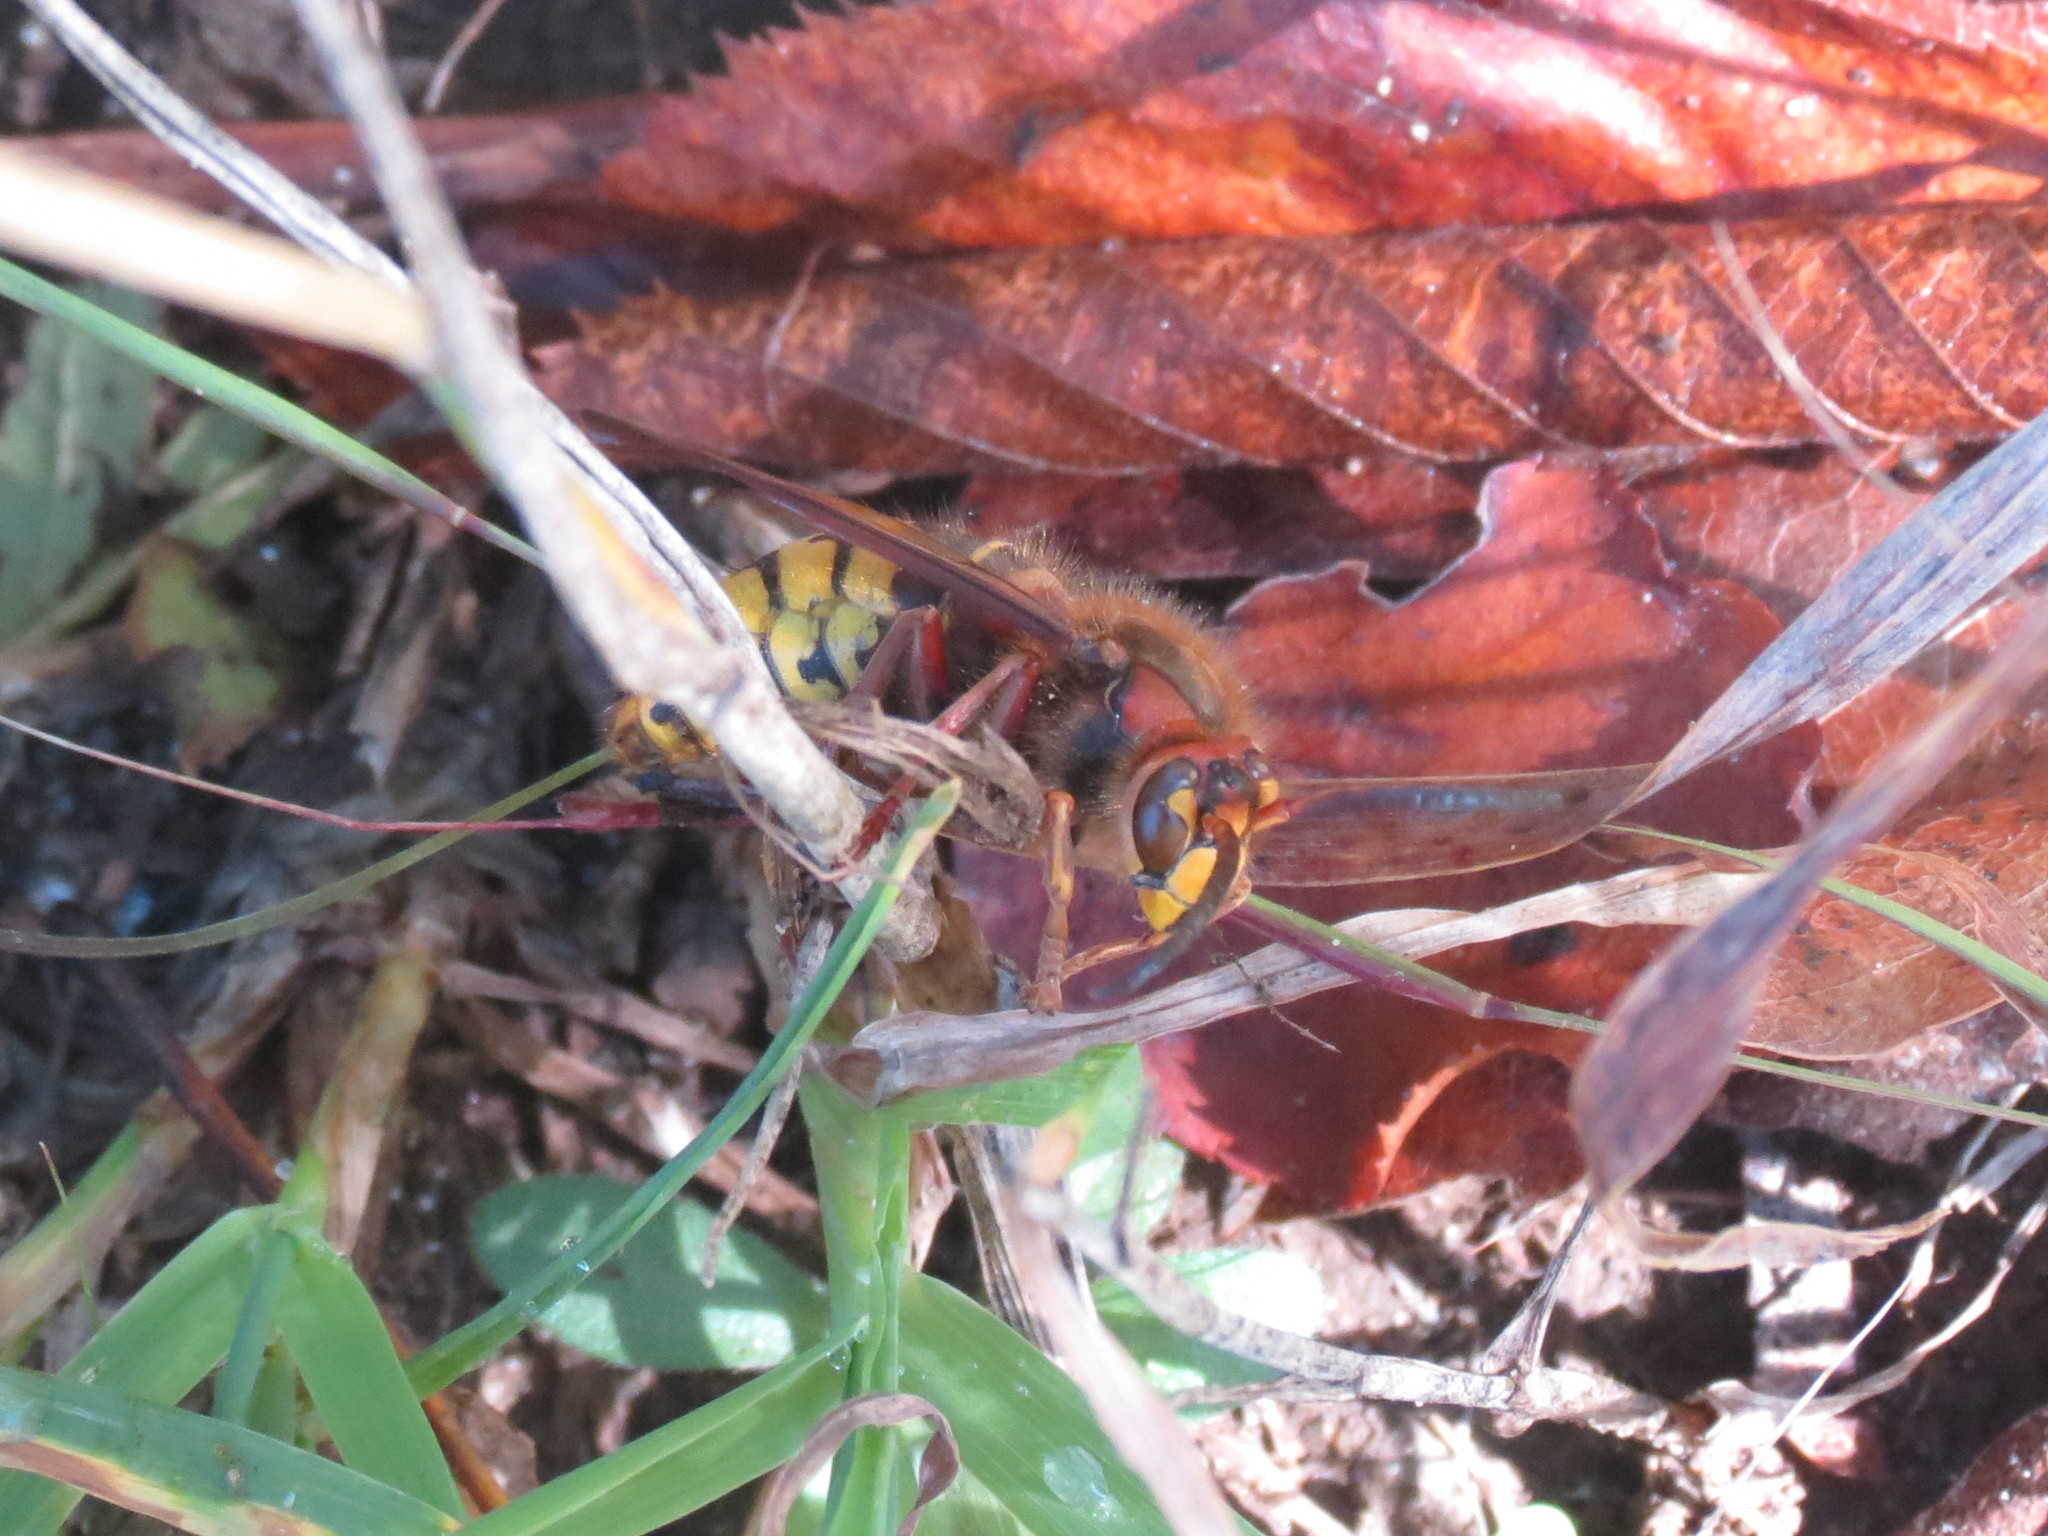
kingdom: Animalia
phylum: Arthropoda
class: Insecta
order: Hymenoptera
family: Vespidae
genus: Vespa
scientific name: Vespa crabro
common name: Hornet
